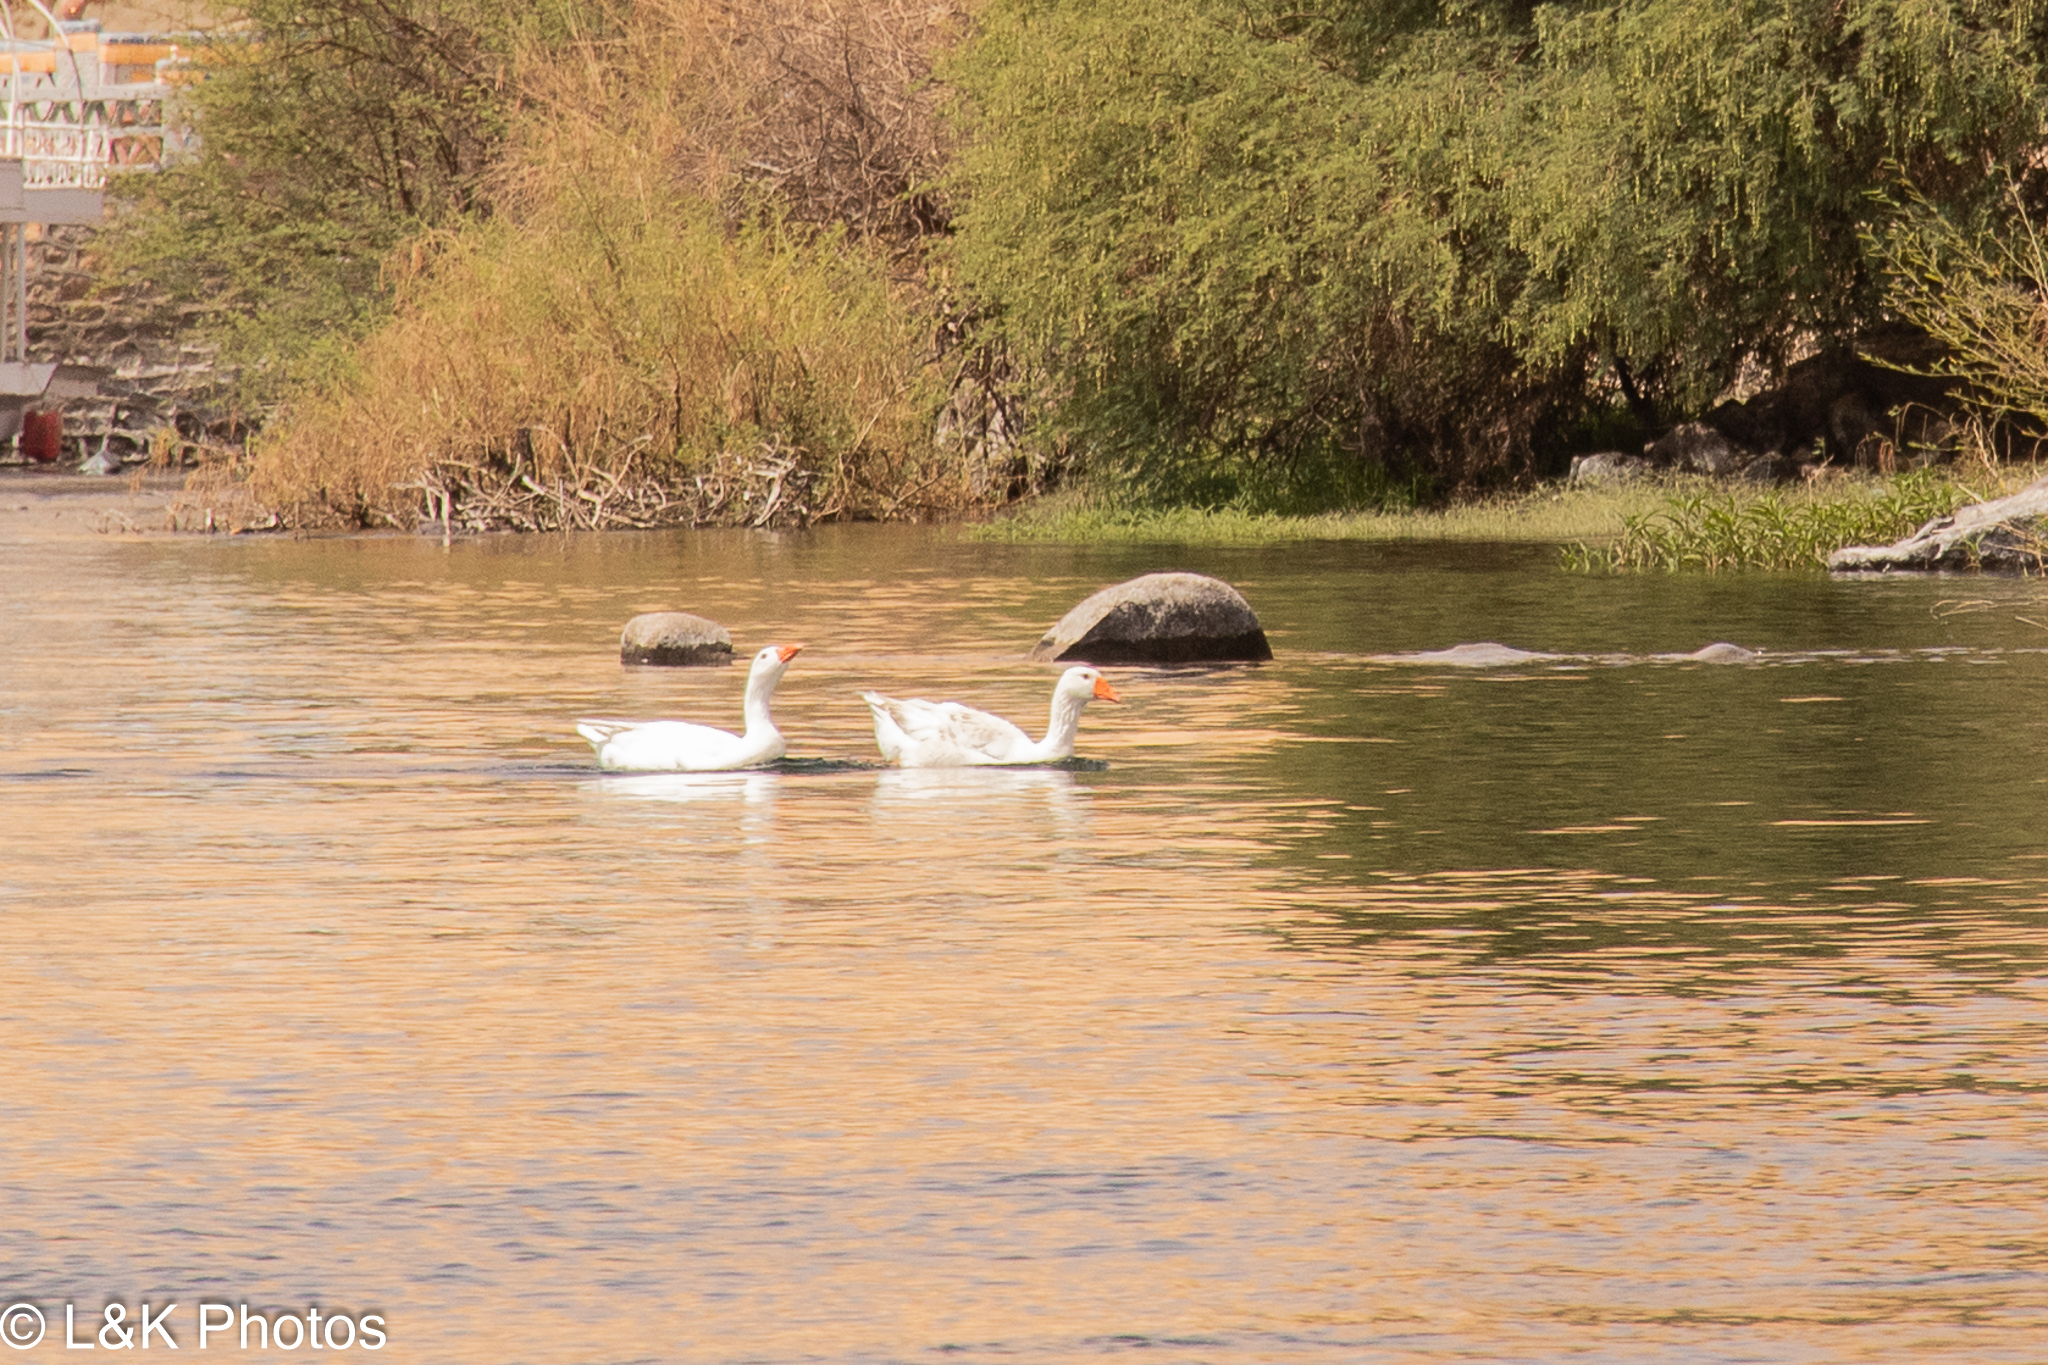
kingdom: Animalia
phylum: Chordata
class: Aves
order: Anseriformes
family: Anatidae
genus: Anser
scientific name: Anser anser
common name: Greylag goose
